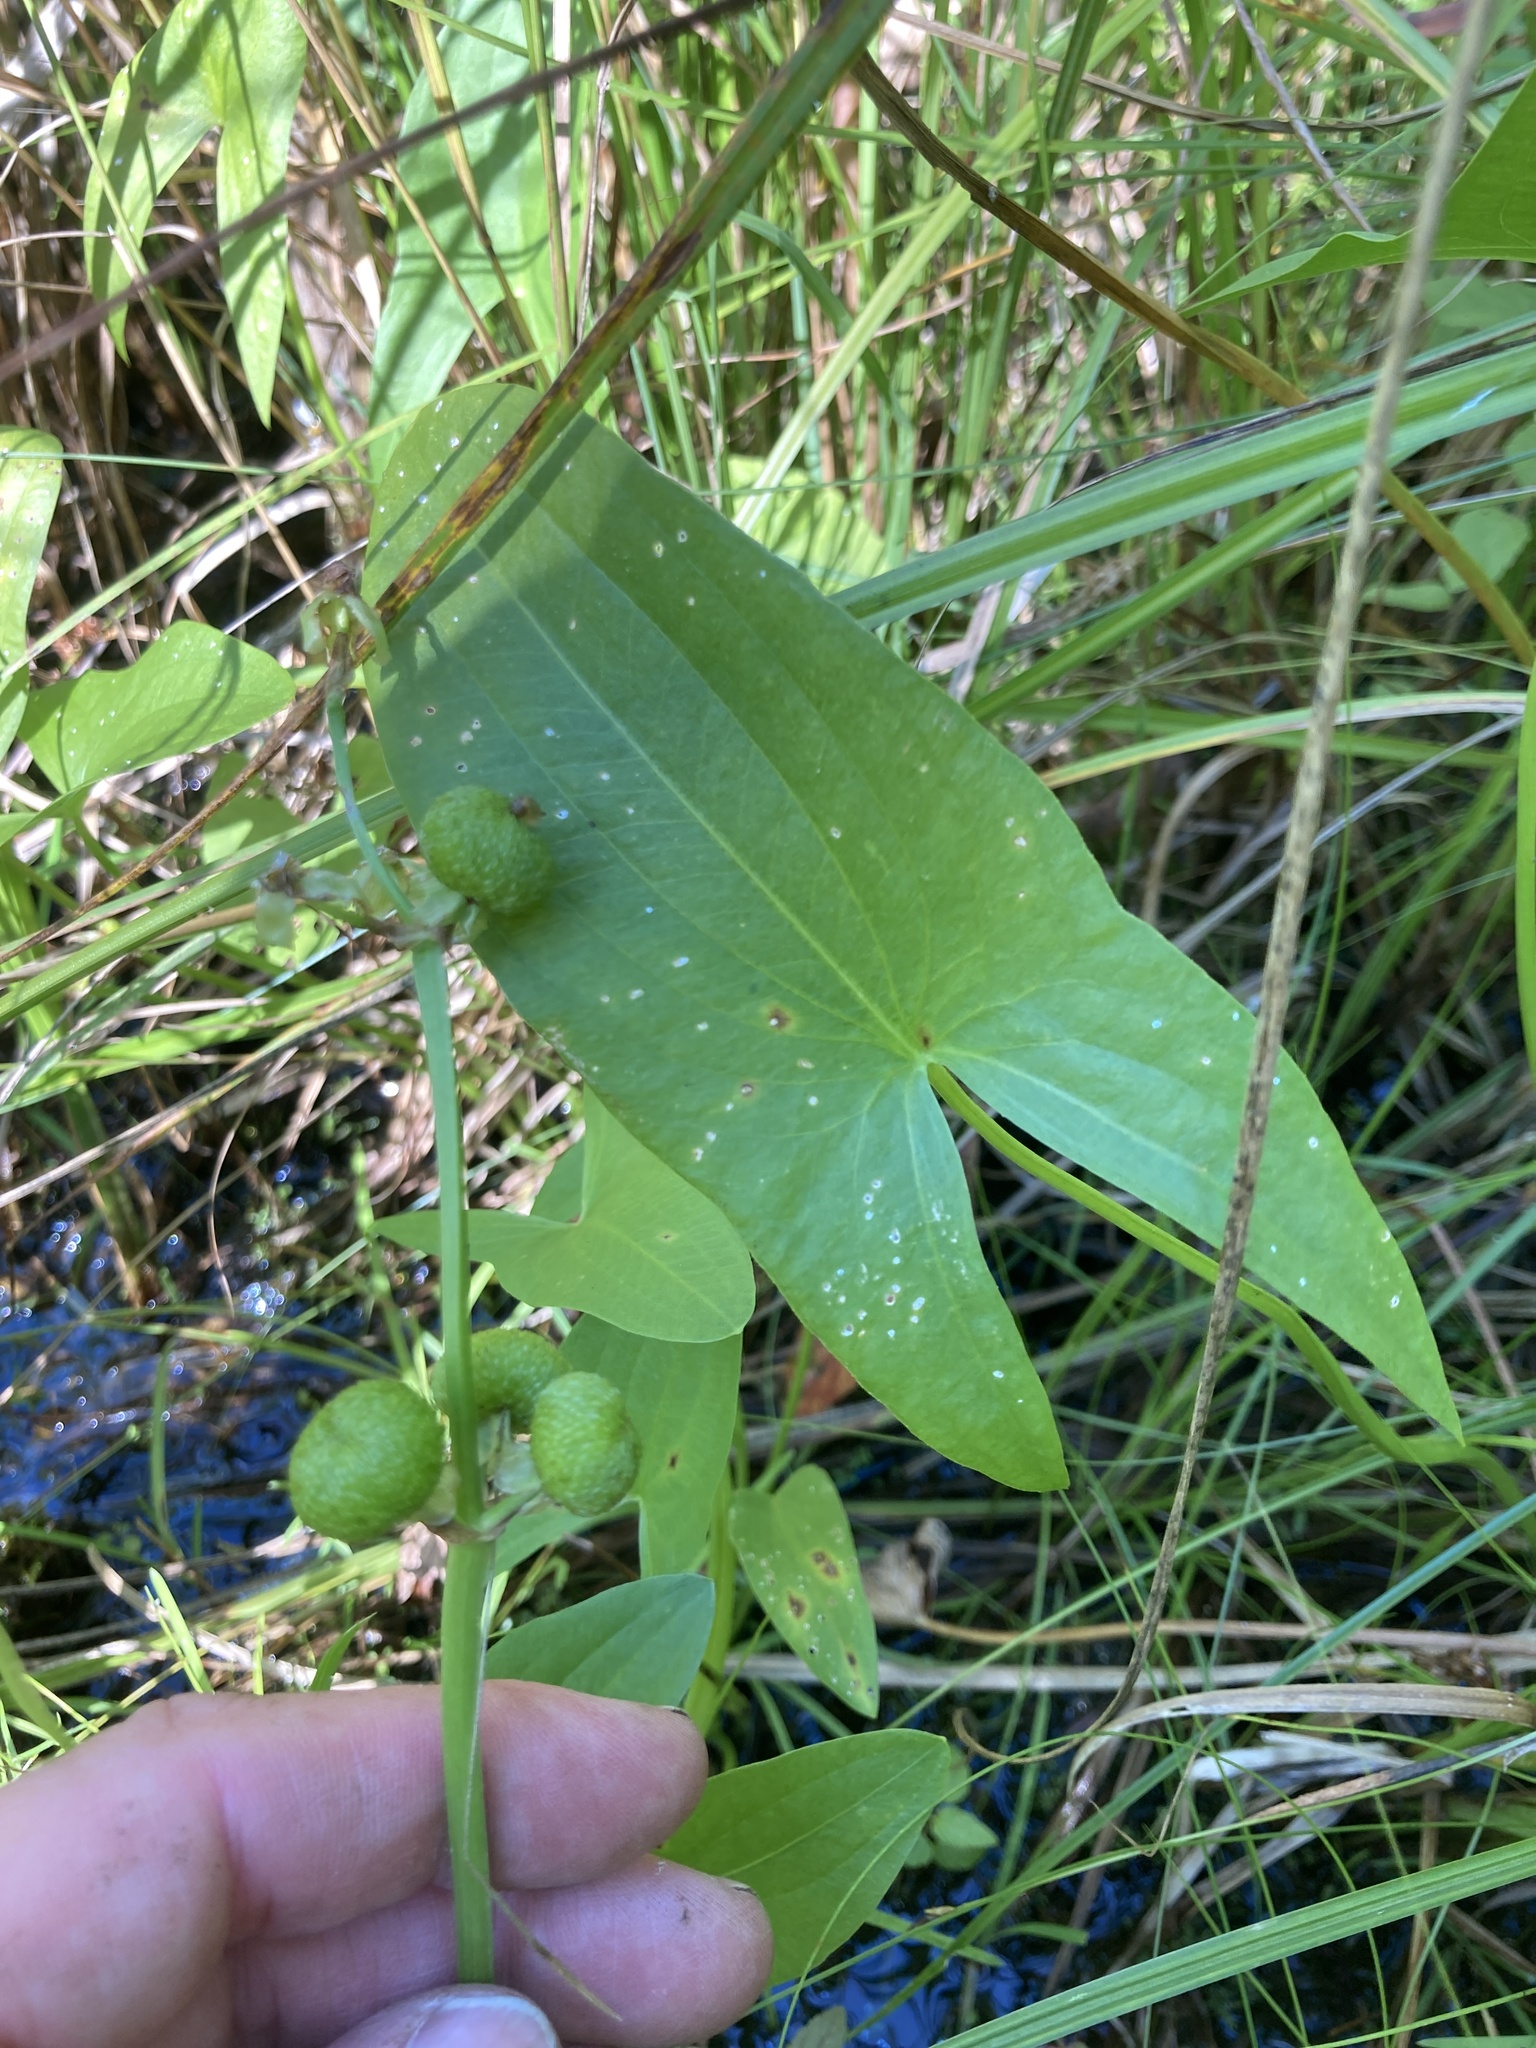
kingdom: Plantae
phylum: Tracheophyta
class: Liliopsida
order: Alismatales
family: Alismataceae
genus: Sagittaria
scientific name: Sagittaria latifolia
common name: Duck-potato
